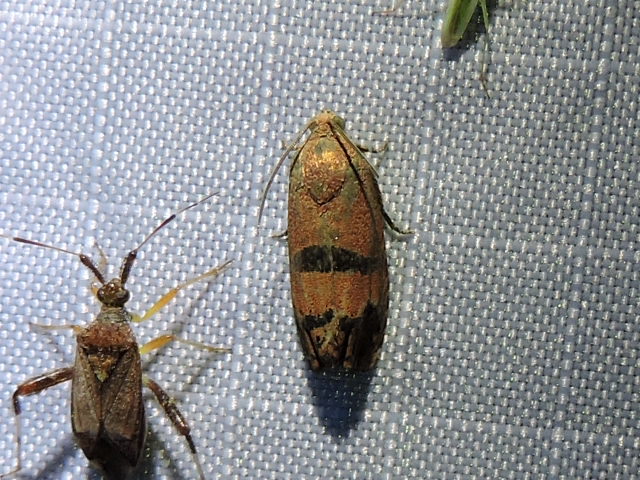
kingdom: Animalia
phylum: Arthropoda
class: Insecta
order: Lepidoptera
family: Tortricidae
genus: Cydia
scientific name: Cydia latiferreana
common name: Filbertworm moth
